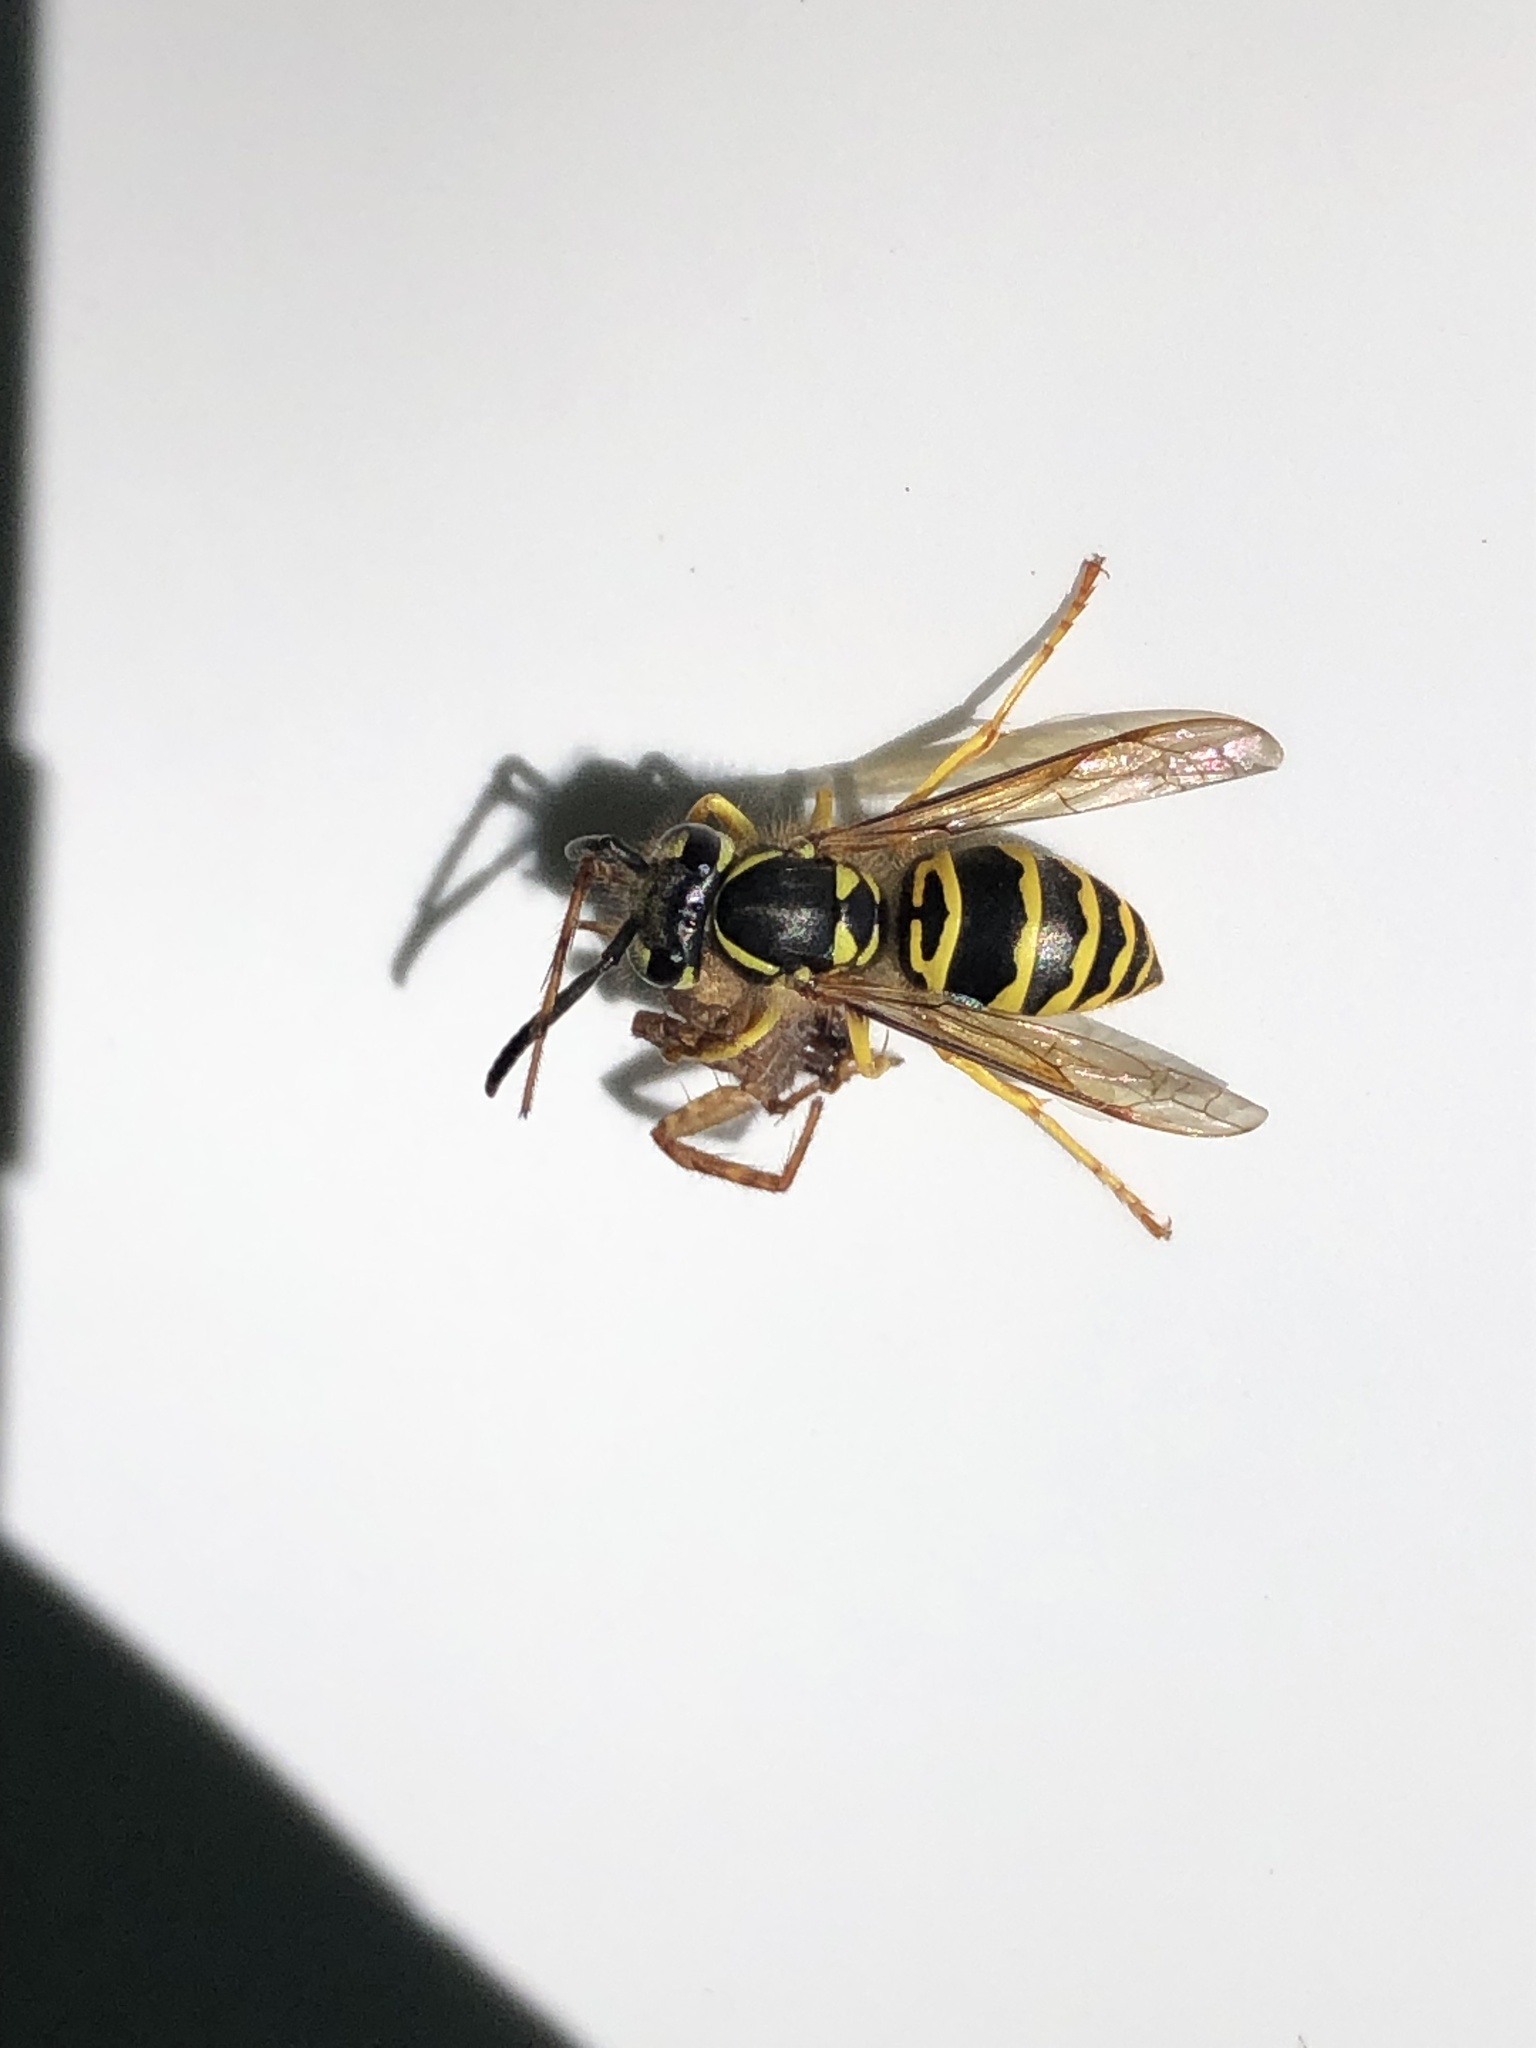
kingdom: Animalia
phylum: Arthropoda
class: Insecta
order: Hymenoptera
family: Vespidae
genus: Vespula
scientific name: Vespula maculifrons
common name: Eastern yellowjacket
